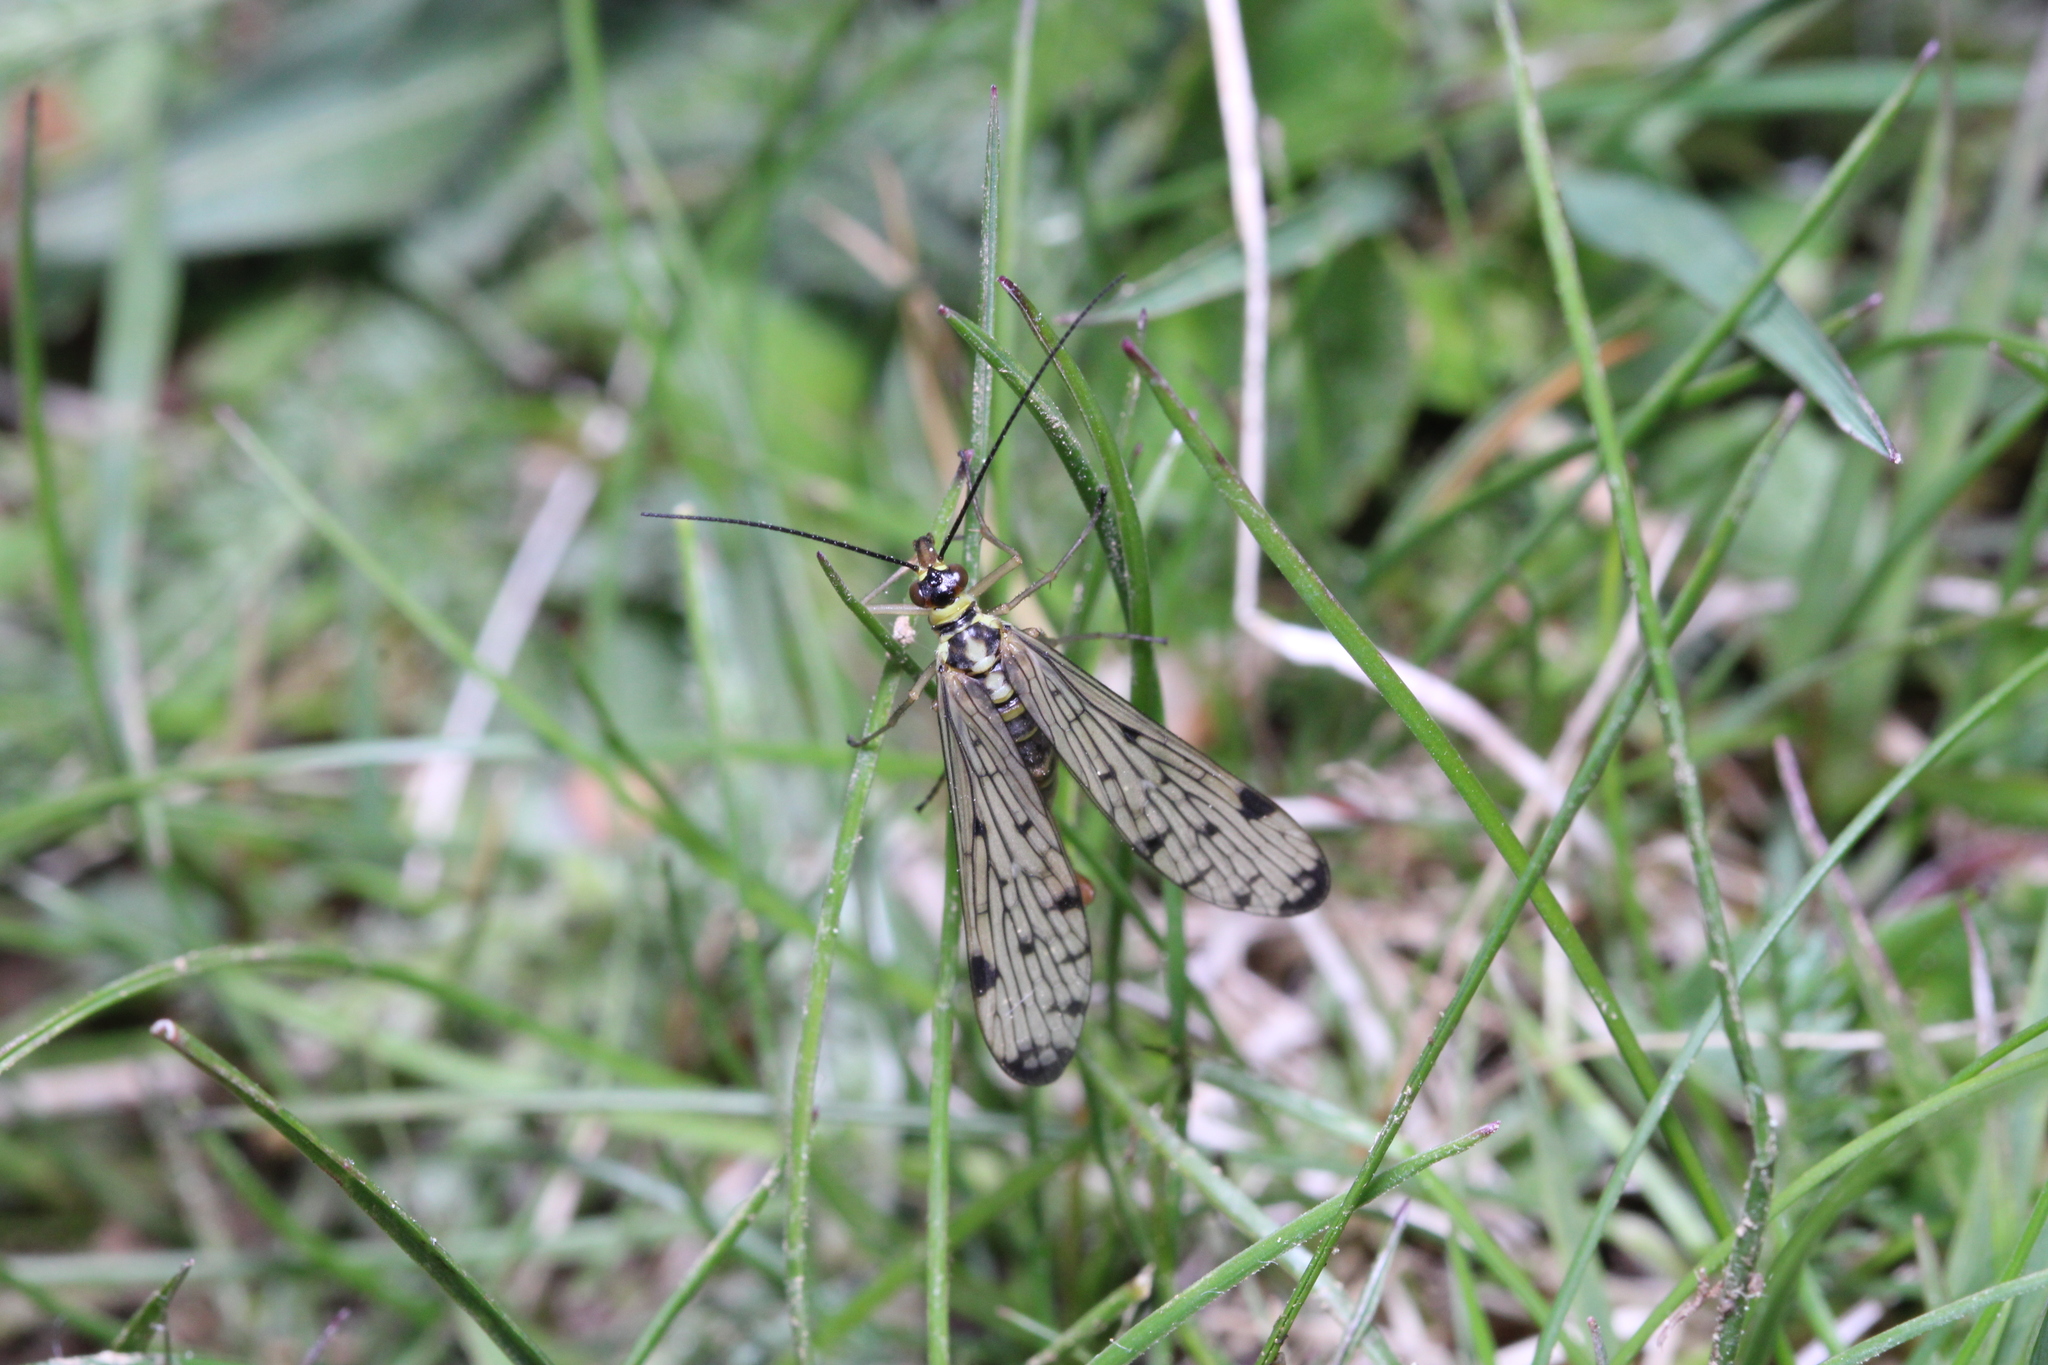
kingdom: Animalia
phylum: Arthropoda
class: Insecta
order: Mecoptera
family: Panorpidae
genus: Panorpa
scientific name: Panorpa germanica
